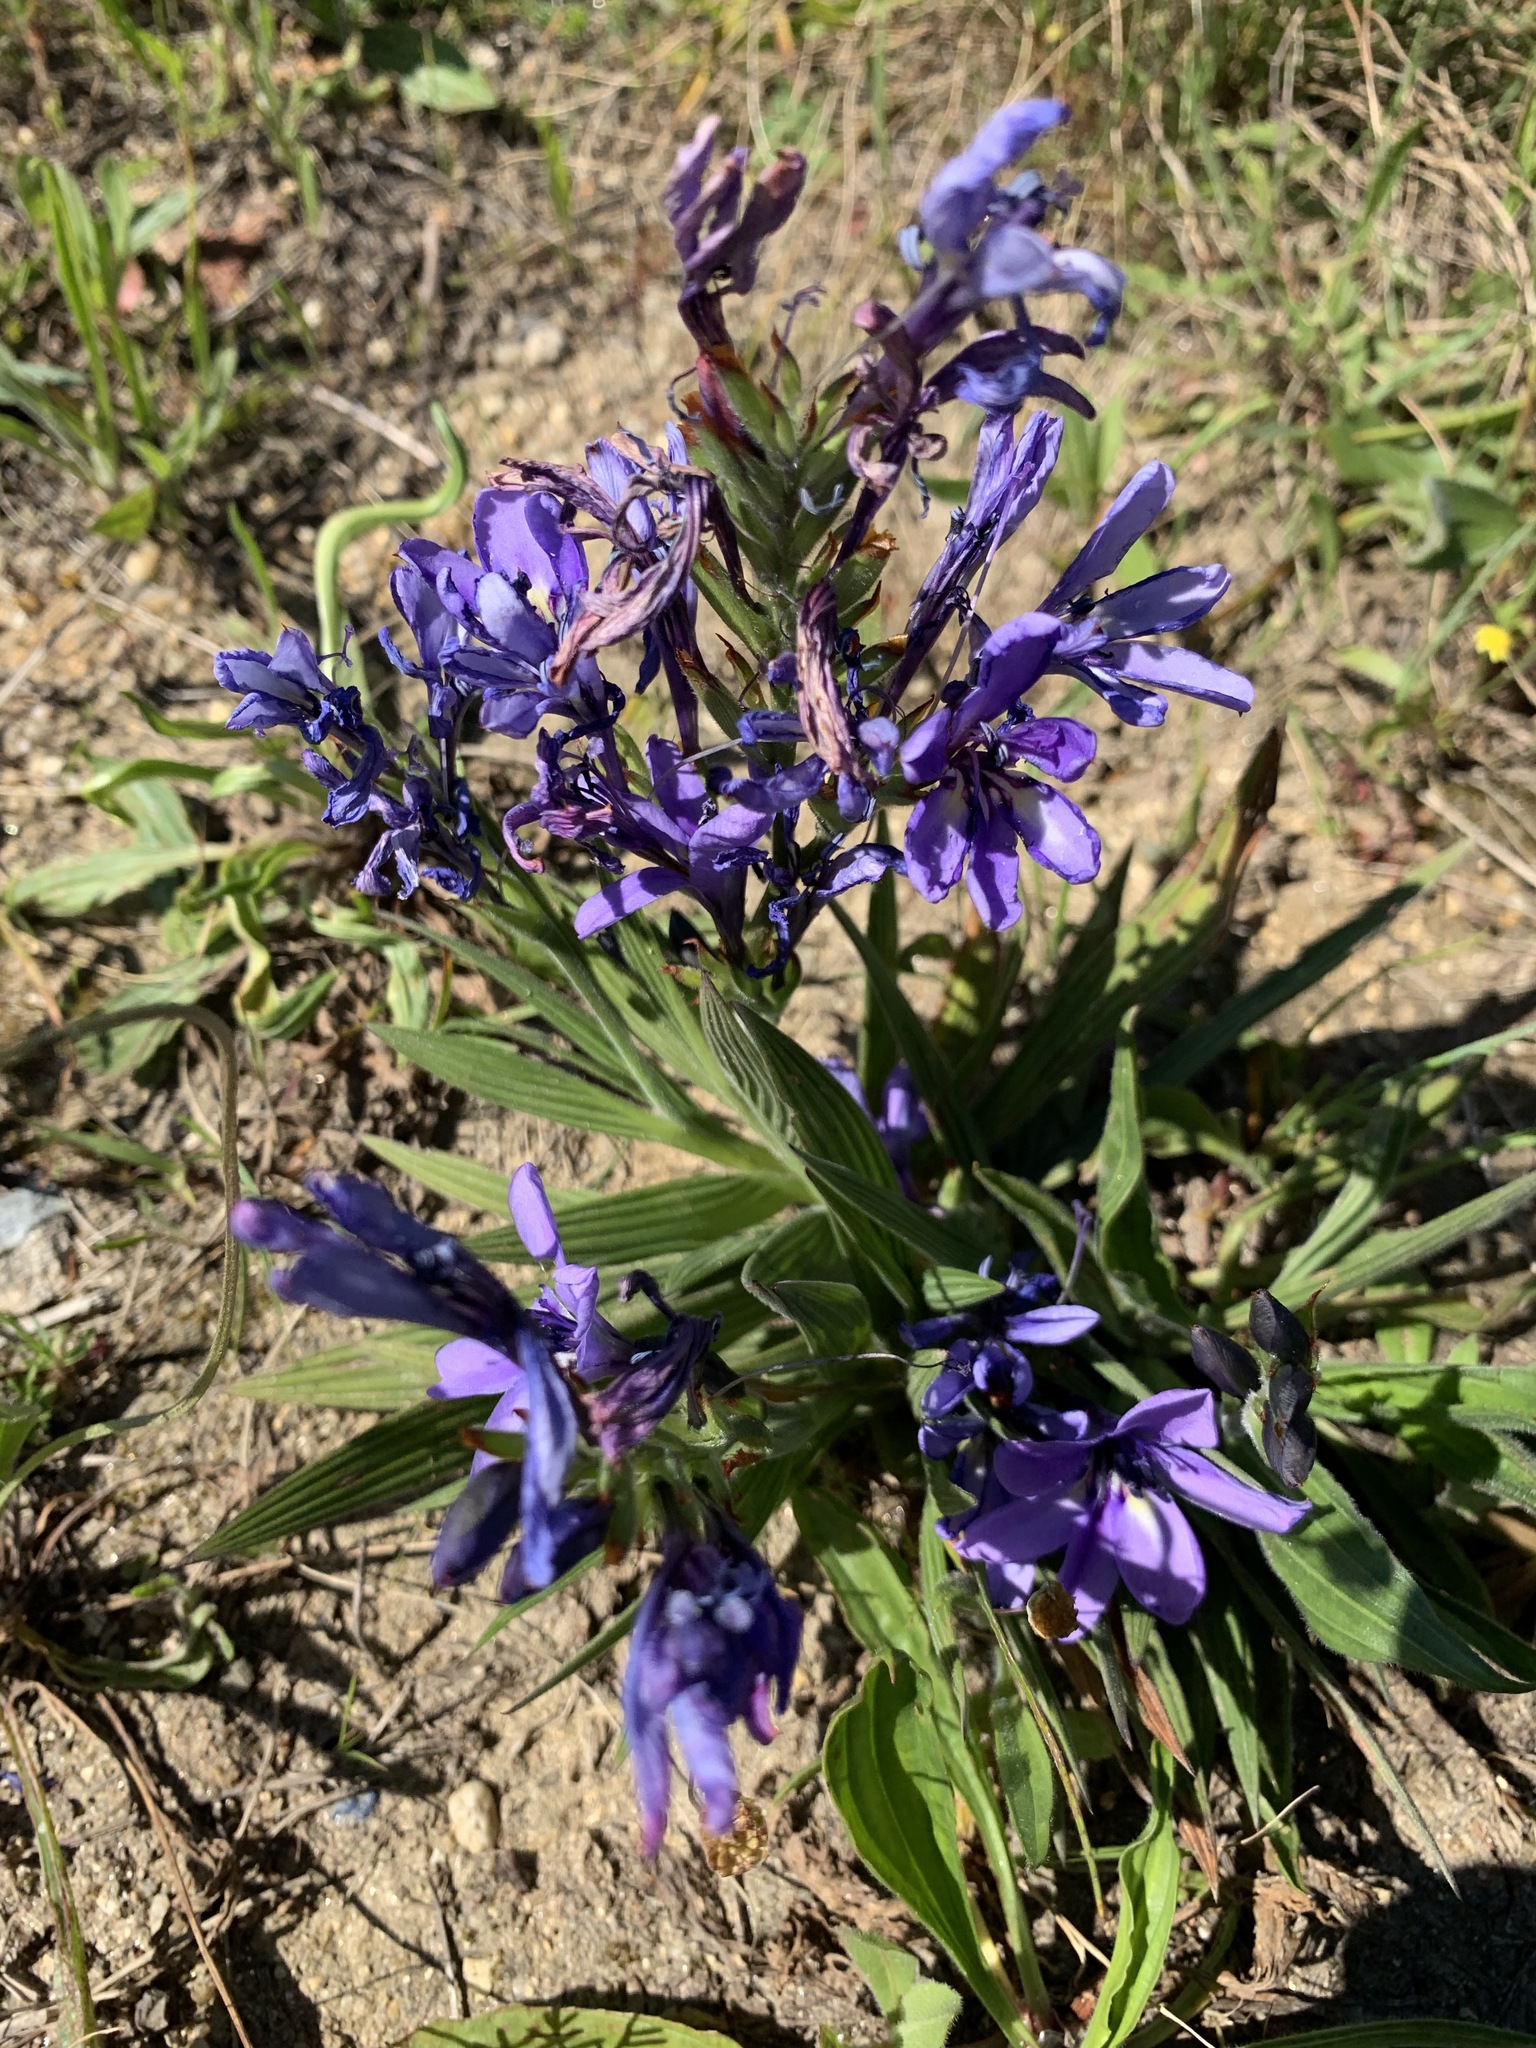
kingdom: Plantae
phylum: Tracheophyta
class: Liliopsida
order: Asparagales
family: Iridaceae
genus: Babiana
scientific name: Babiana fragrans
